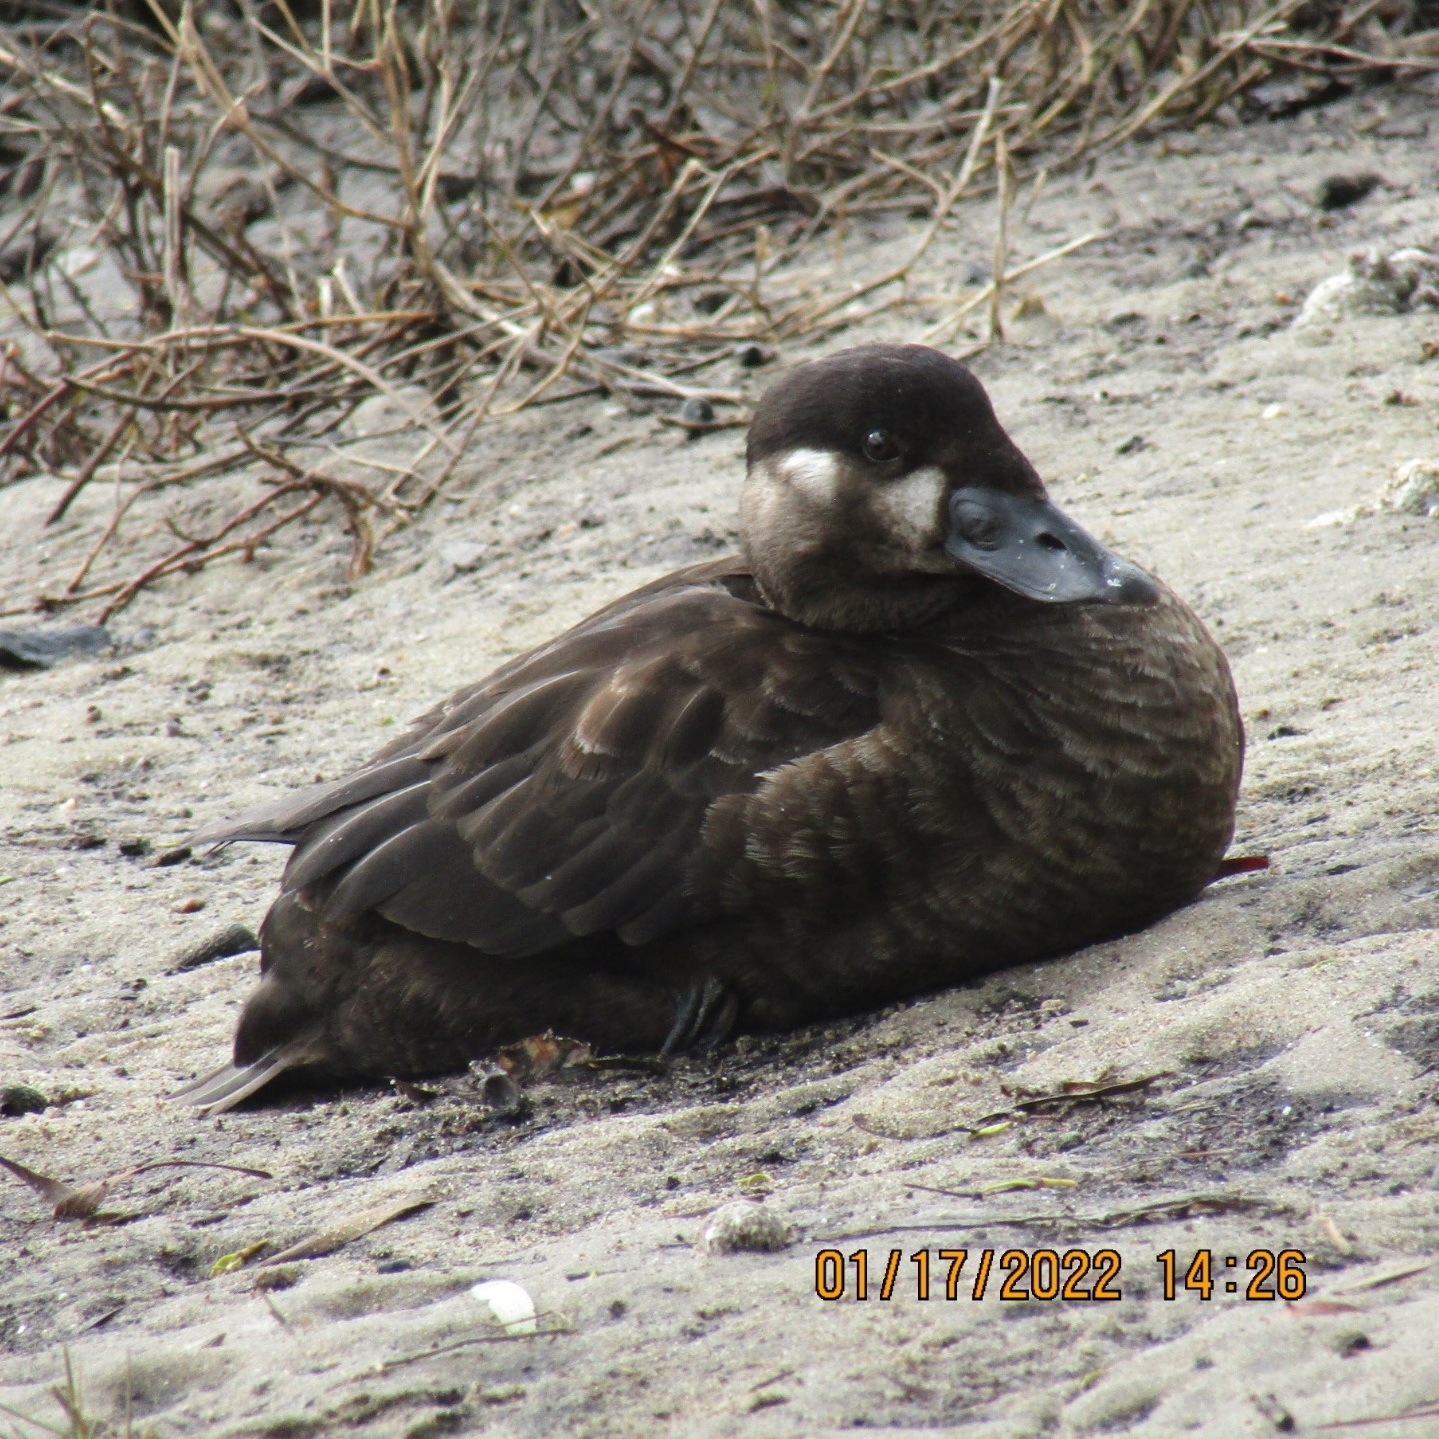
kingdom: Animalia
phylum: Chordata
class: Aves
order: Anseriformes
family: Anatidae
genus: Melanitta
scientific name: Melanitta perspicillata
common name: Surf scoter
